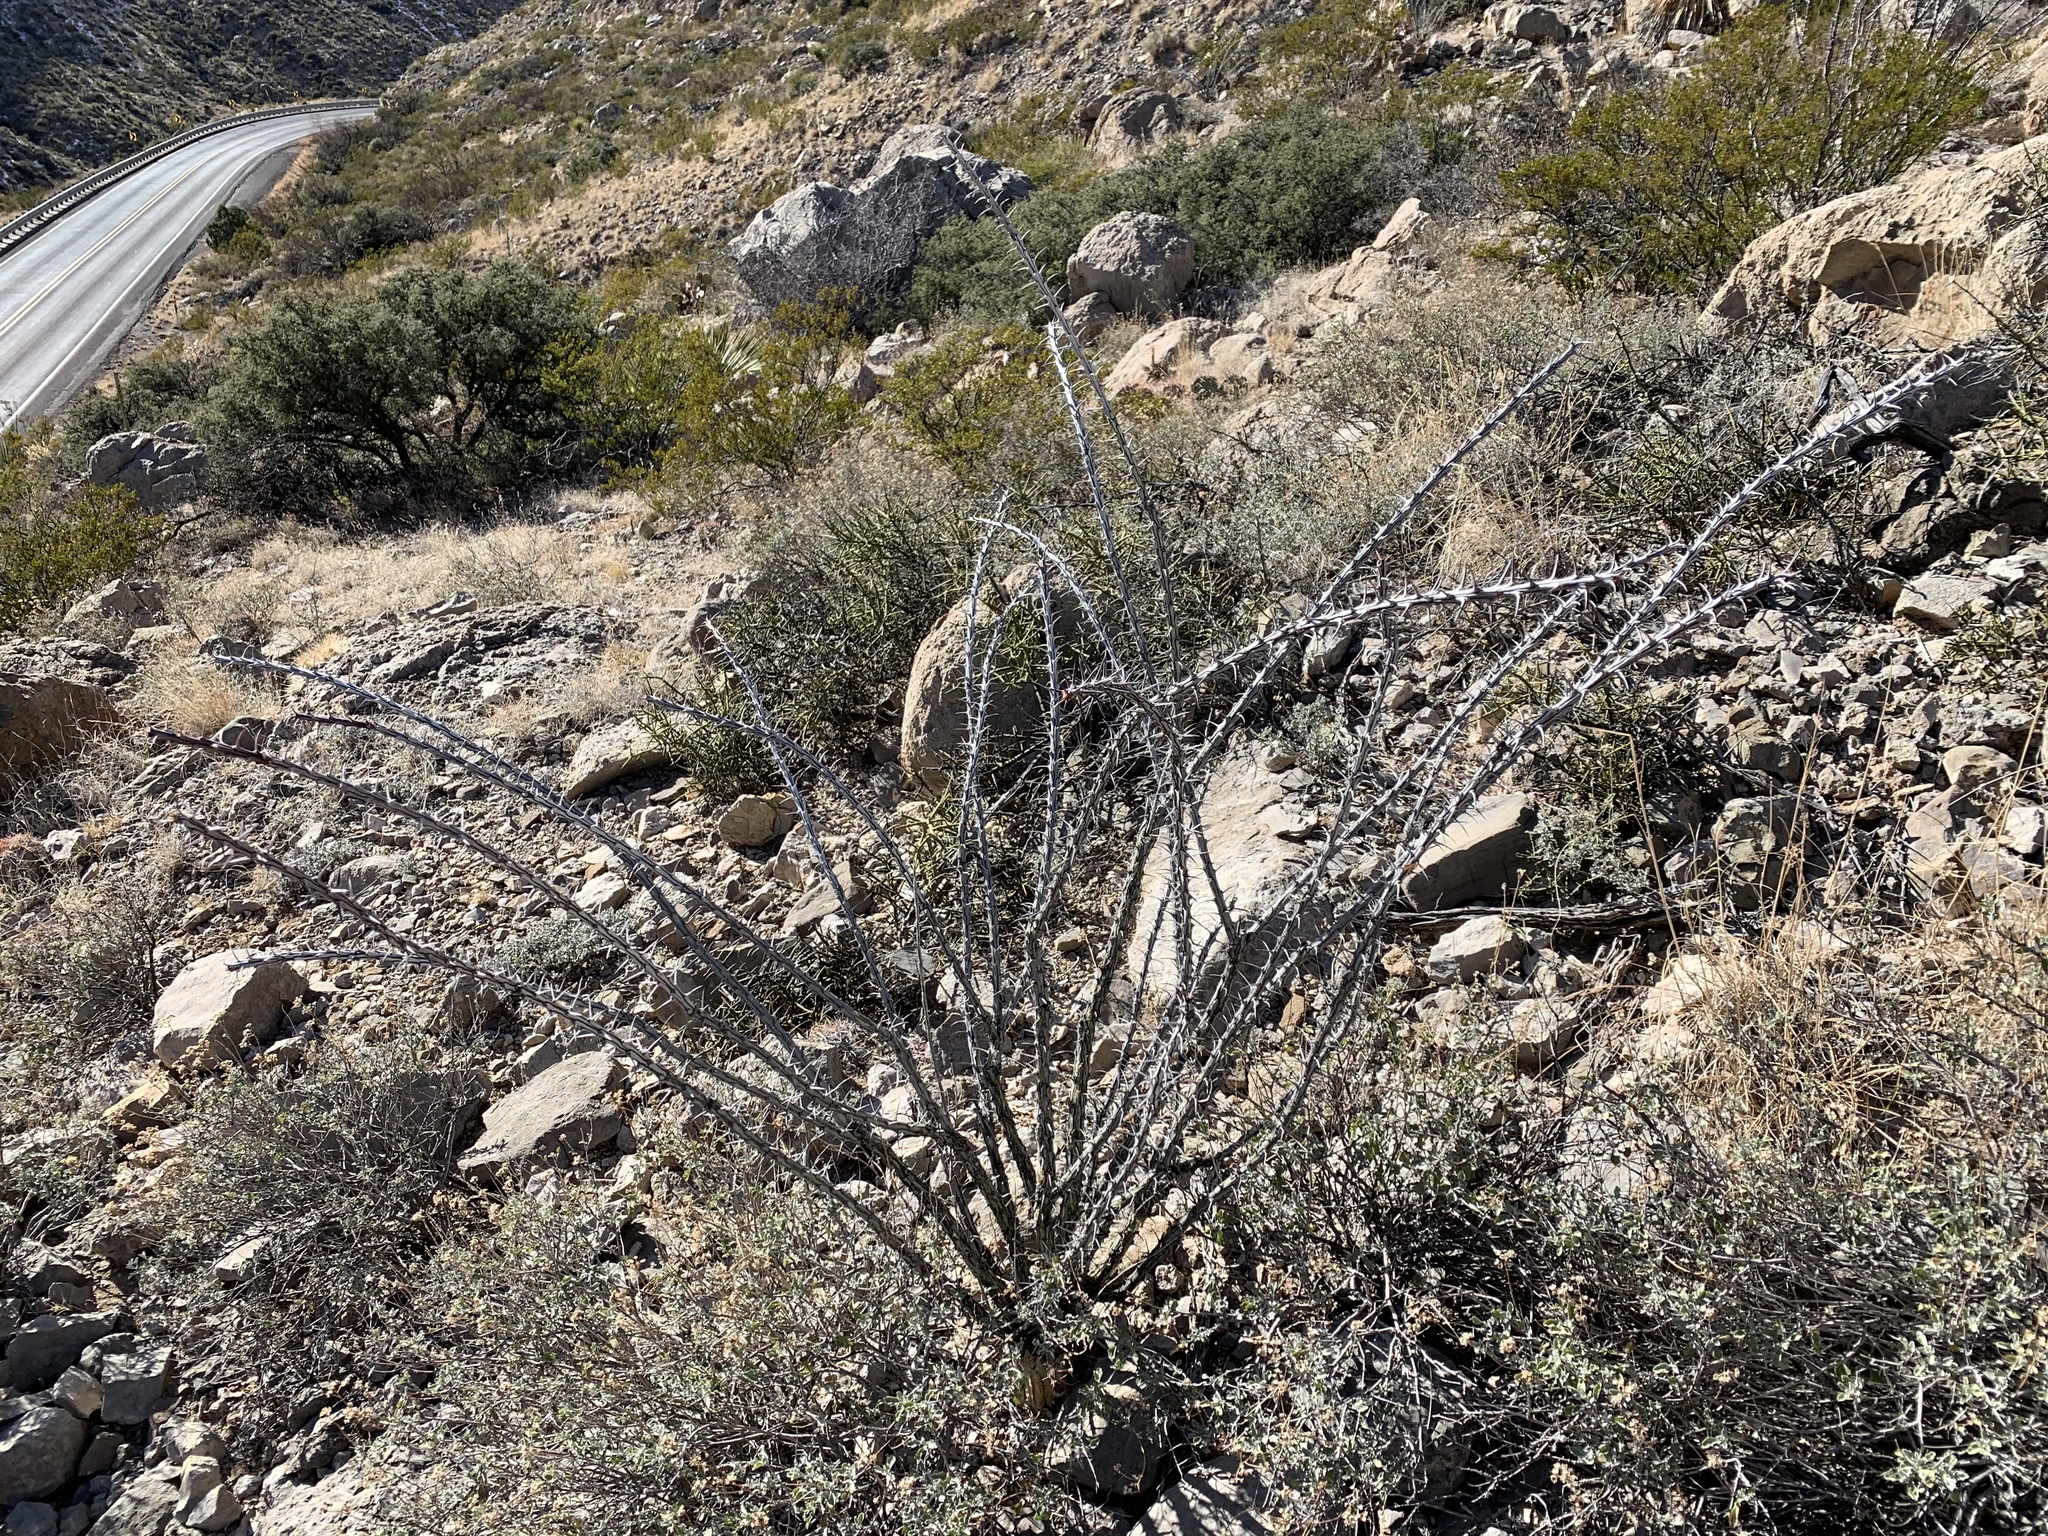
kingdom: Plantae
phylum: Tracheophyta
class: Magnoliopsida
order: Ericales
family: Fouquieriaceae
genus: Fouquieria
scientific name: Fouquieria splendens
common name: Vine-cactus
